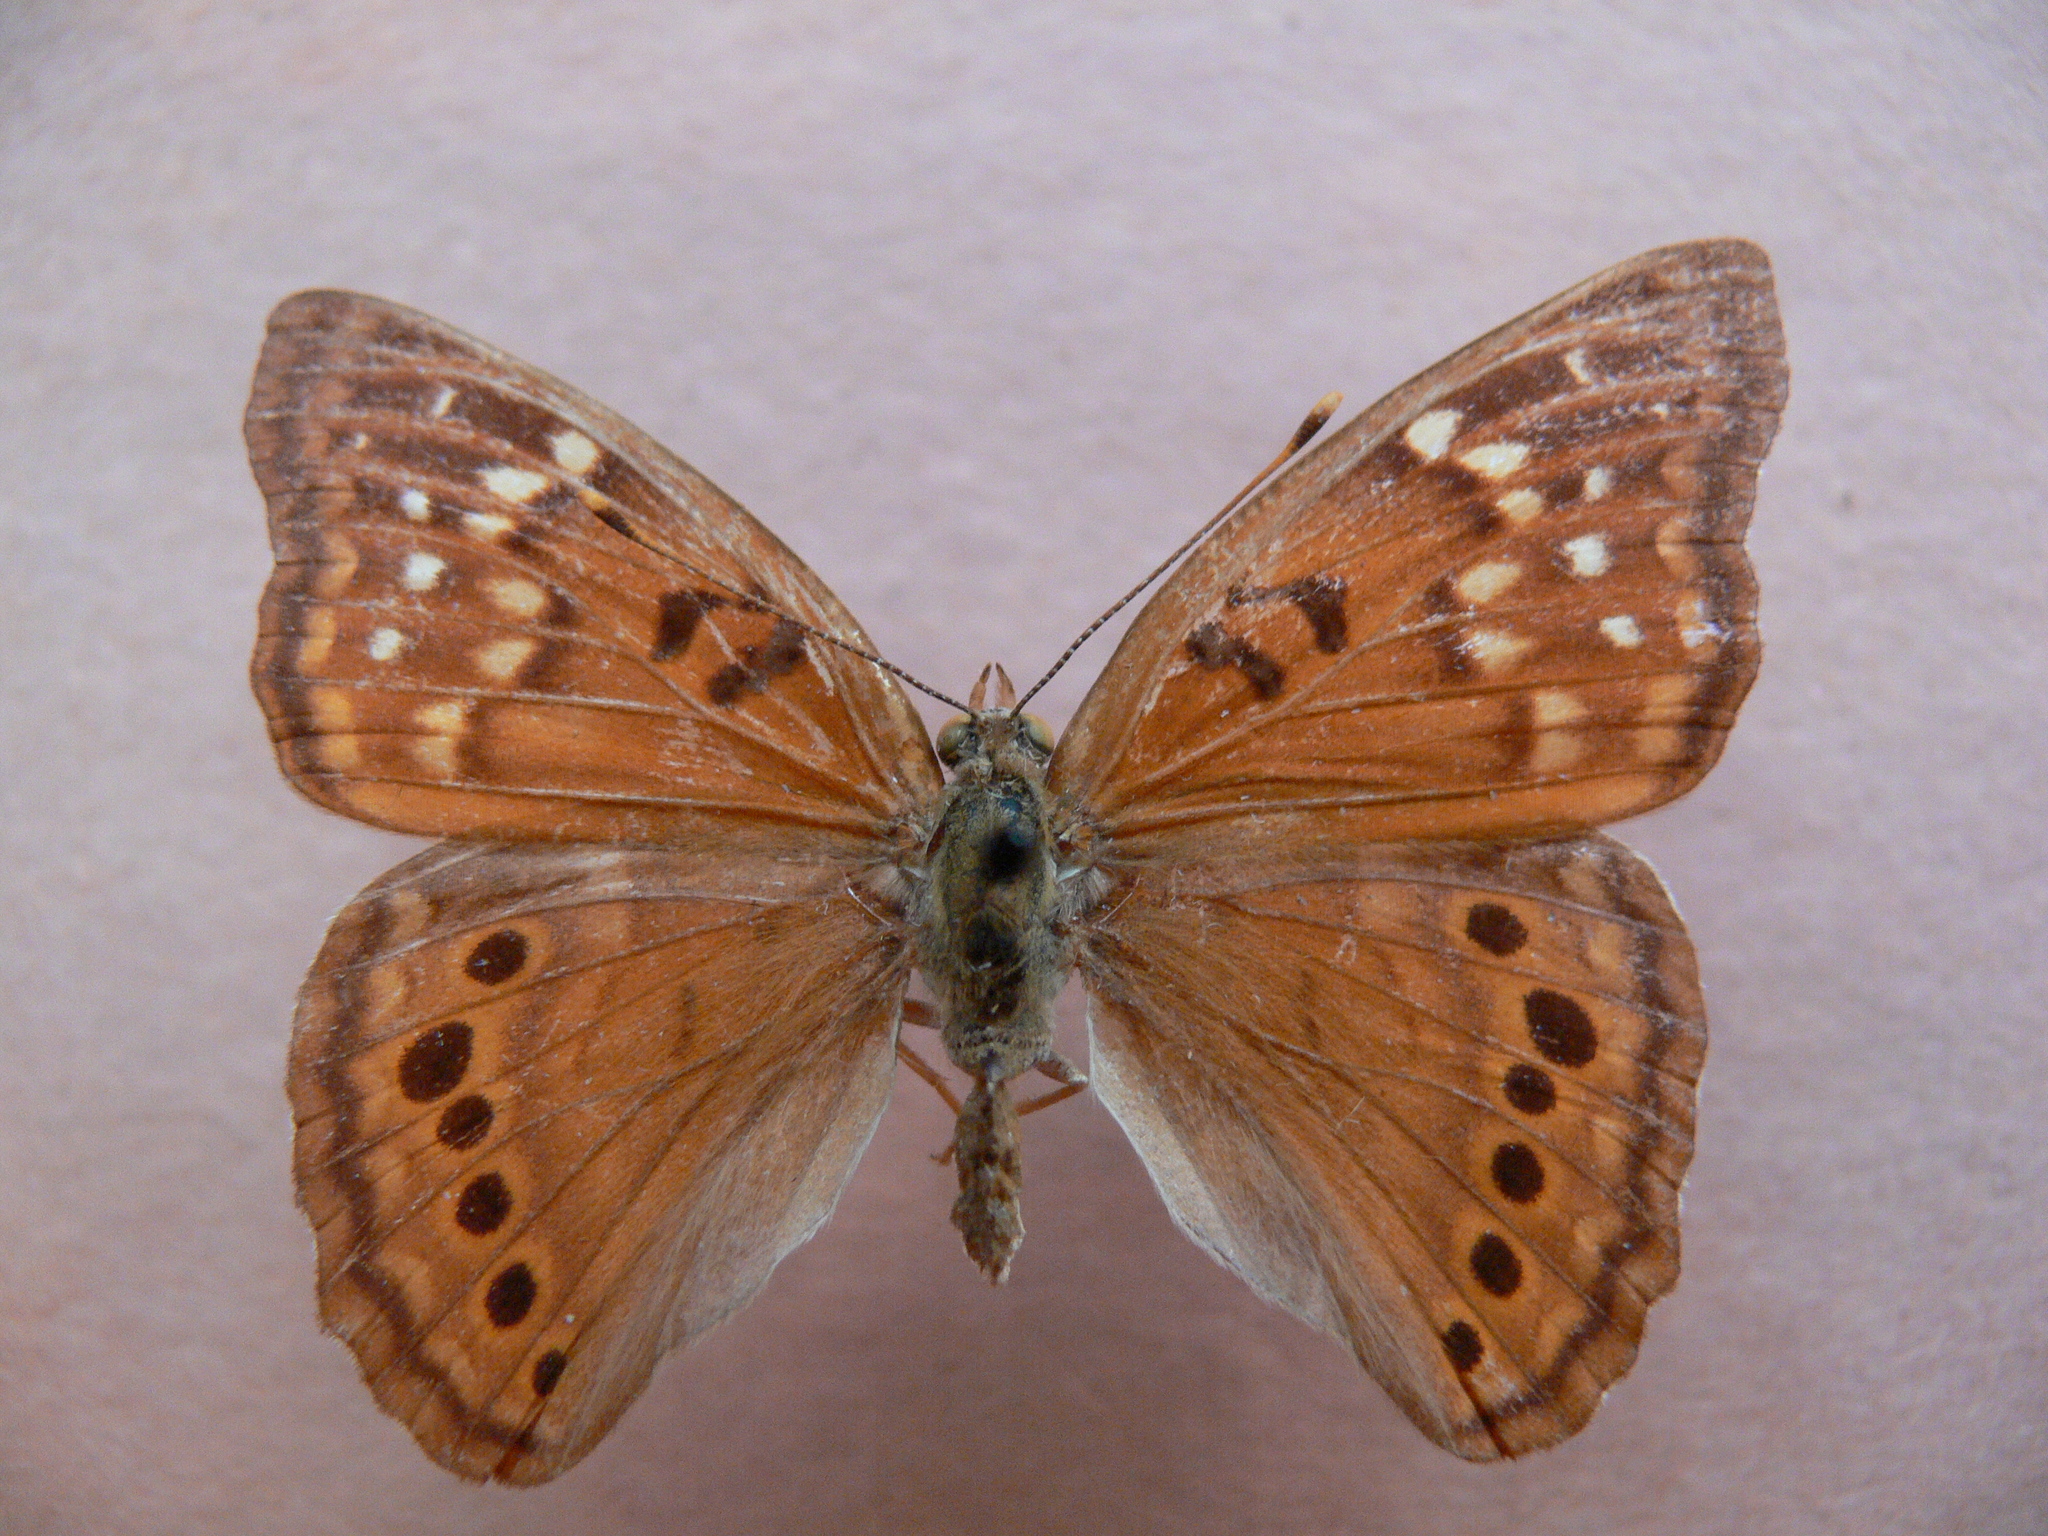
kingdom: Animalia
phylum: Arthropoda
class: Insecta
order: Lepidoptera
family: Nymphalidae
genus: Asterocampa
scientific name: Asterocampa clyton
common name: Tawny emperor
